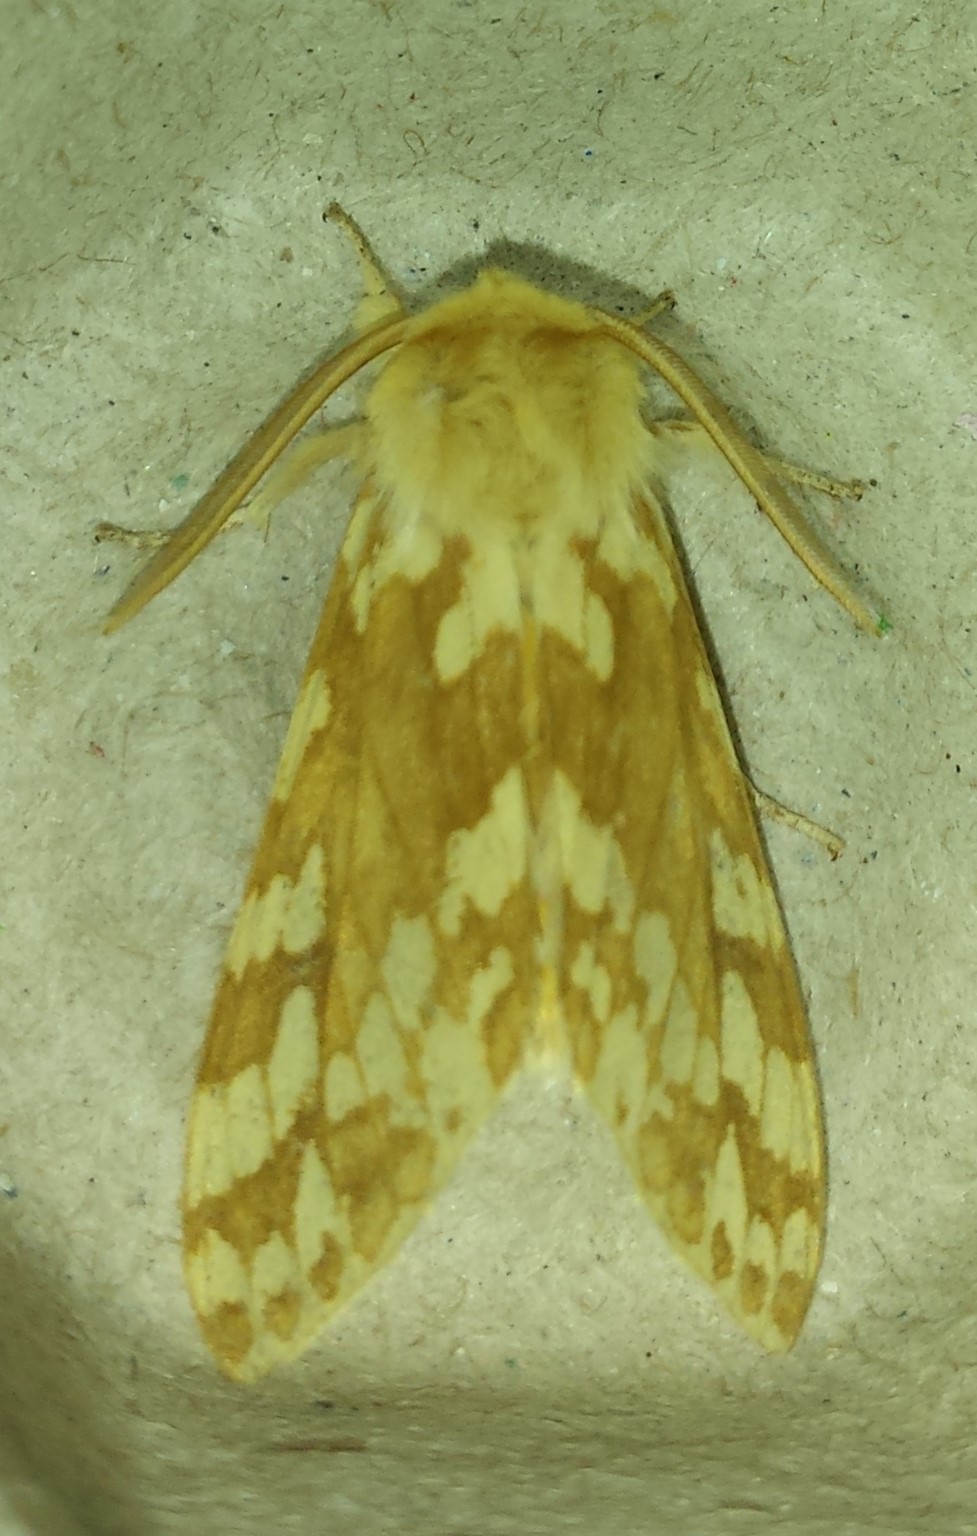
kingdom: Animalia
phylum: Arthropoda
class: Insecta
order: Lepidoptera
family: Erebidae
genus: Lophocampa
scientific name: Lophocampa maculata
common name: Spotted tussock moth
